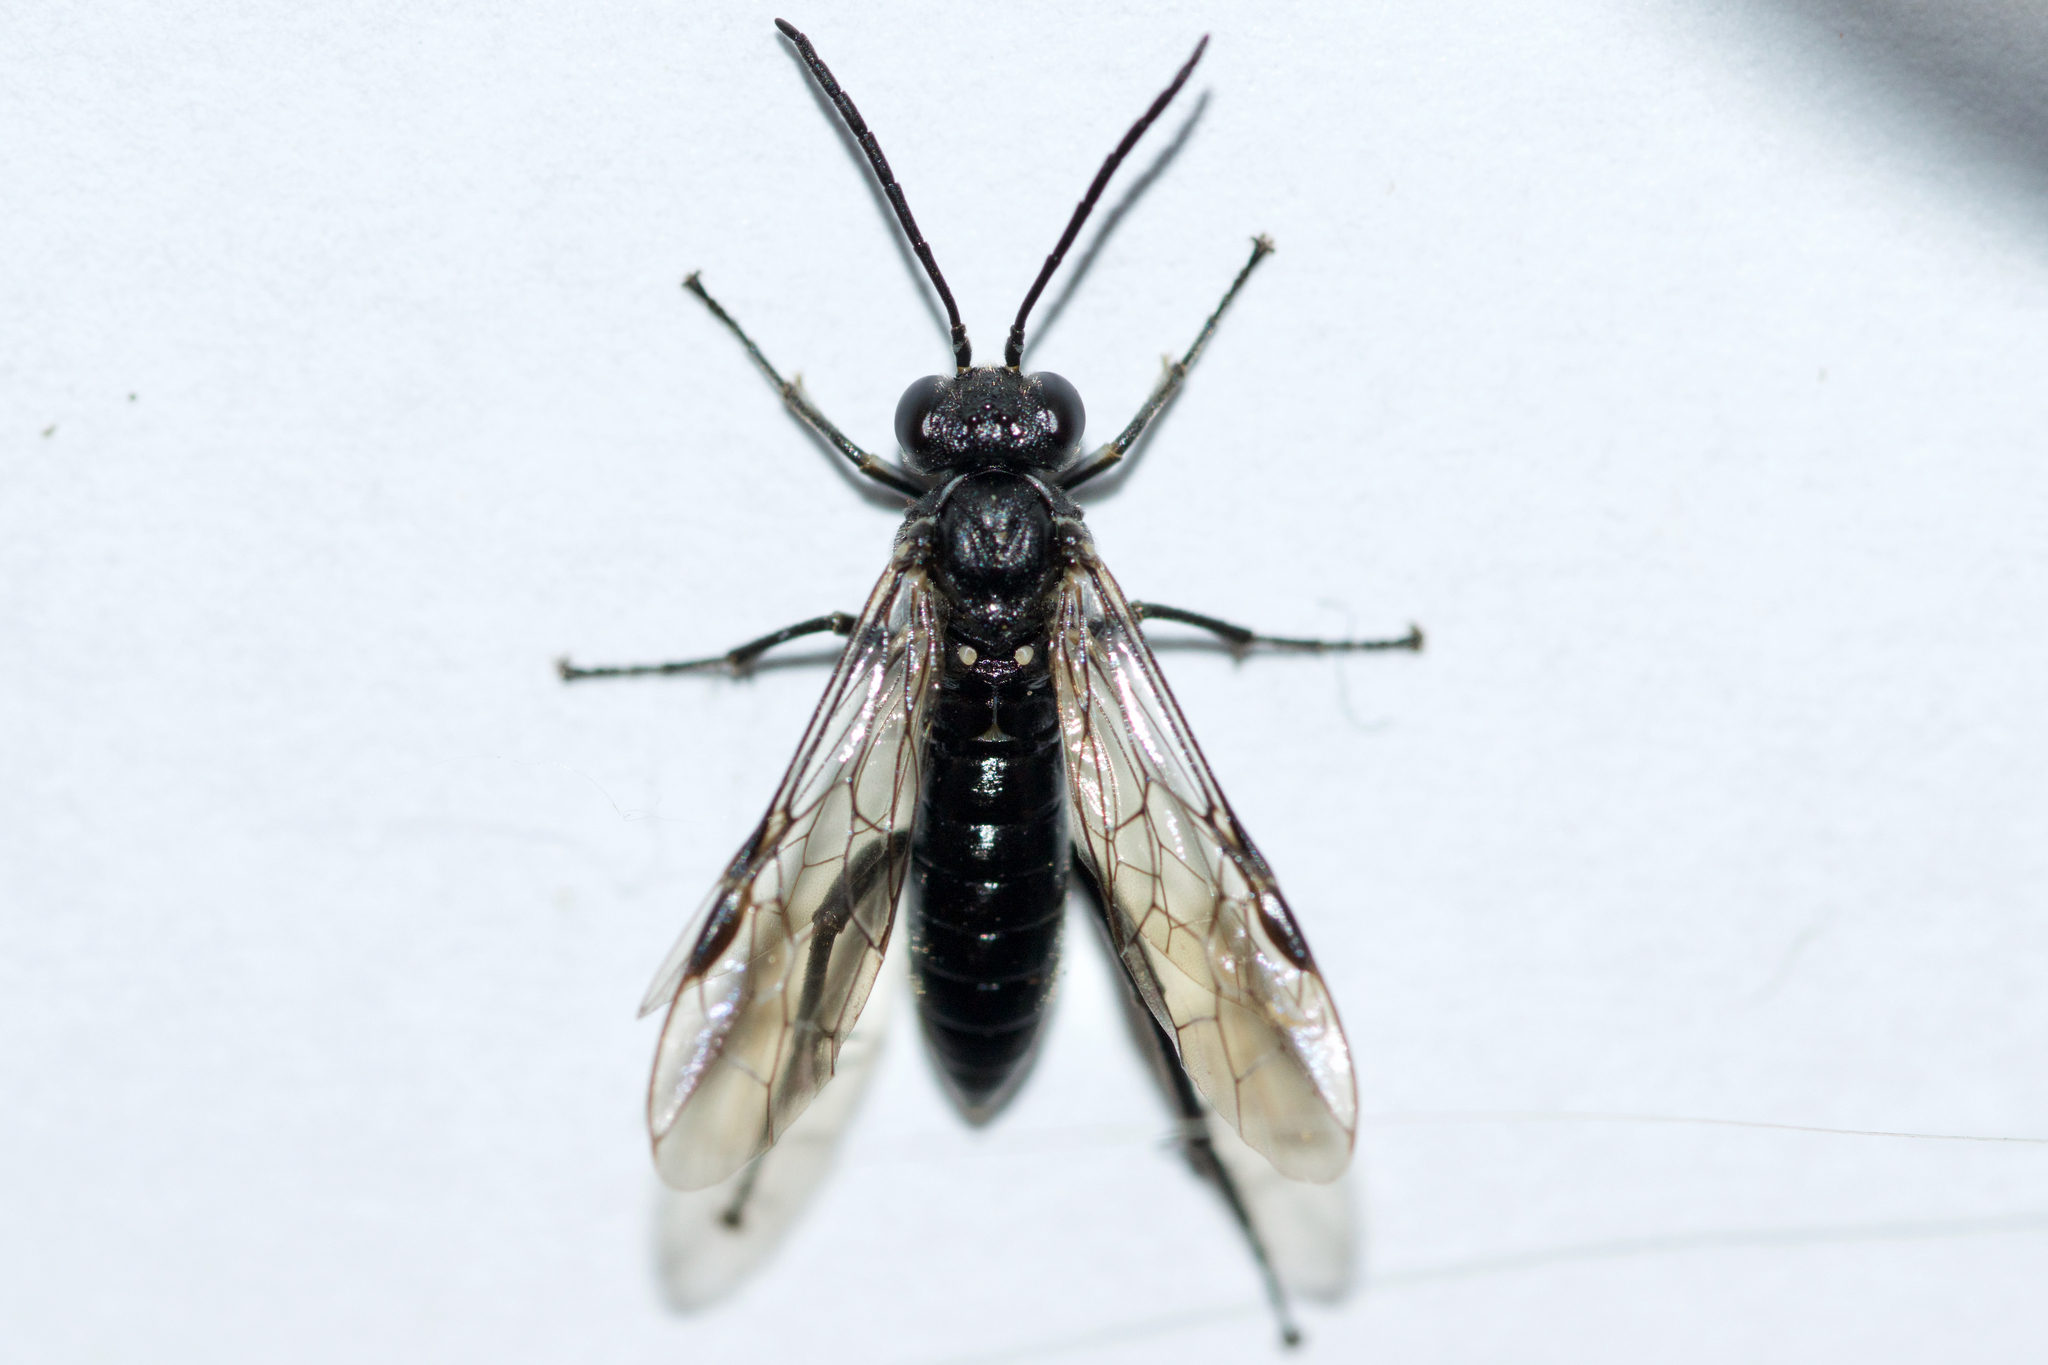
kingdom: Animalia
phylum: Arthropoda
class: Insecta
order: Hymenoptera
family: Tenthredinidae
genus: Macrophya
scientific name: Macrophya
